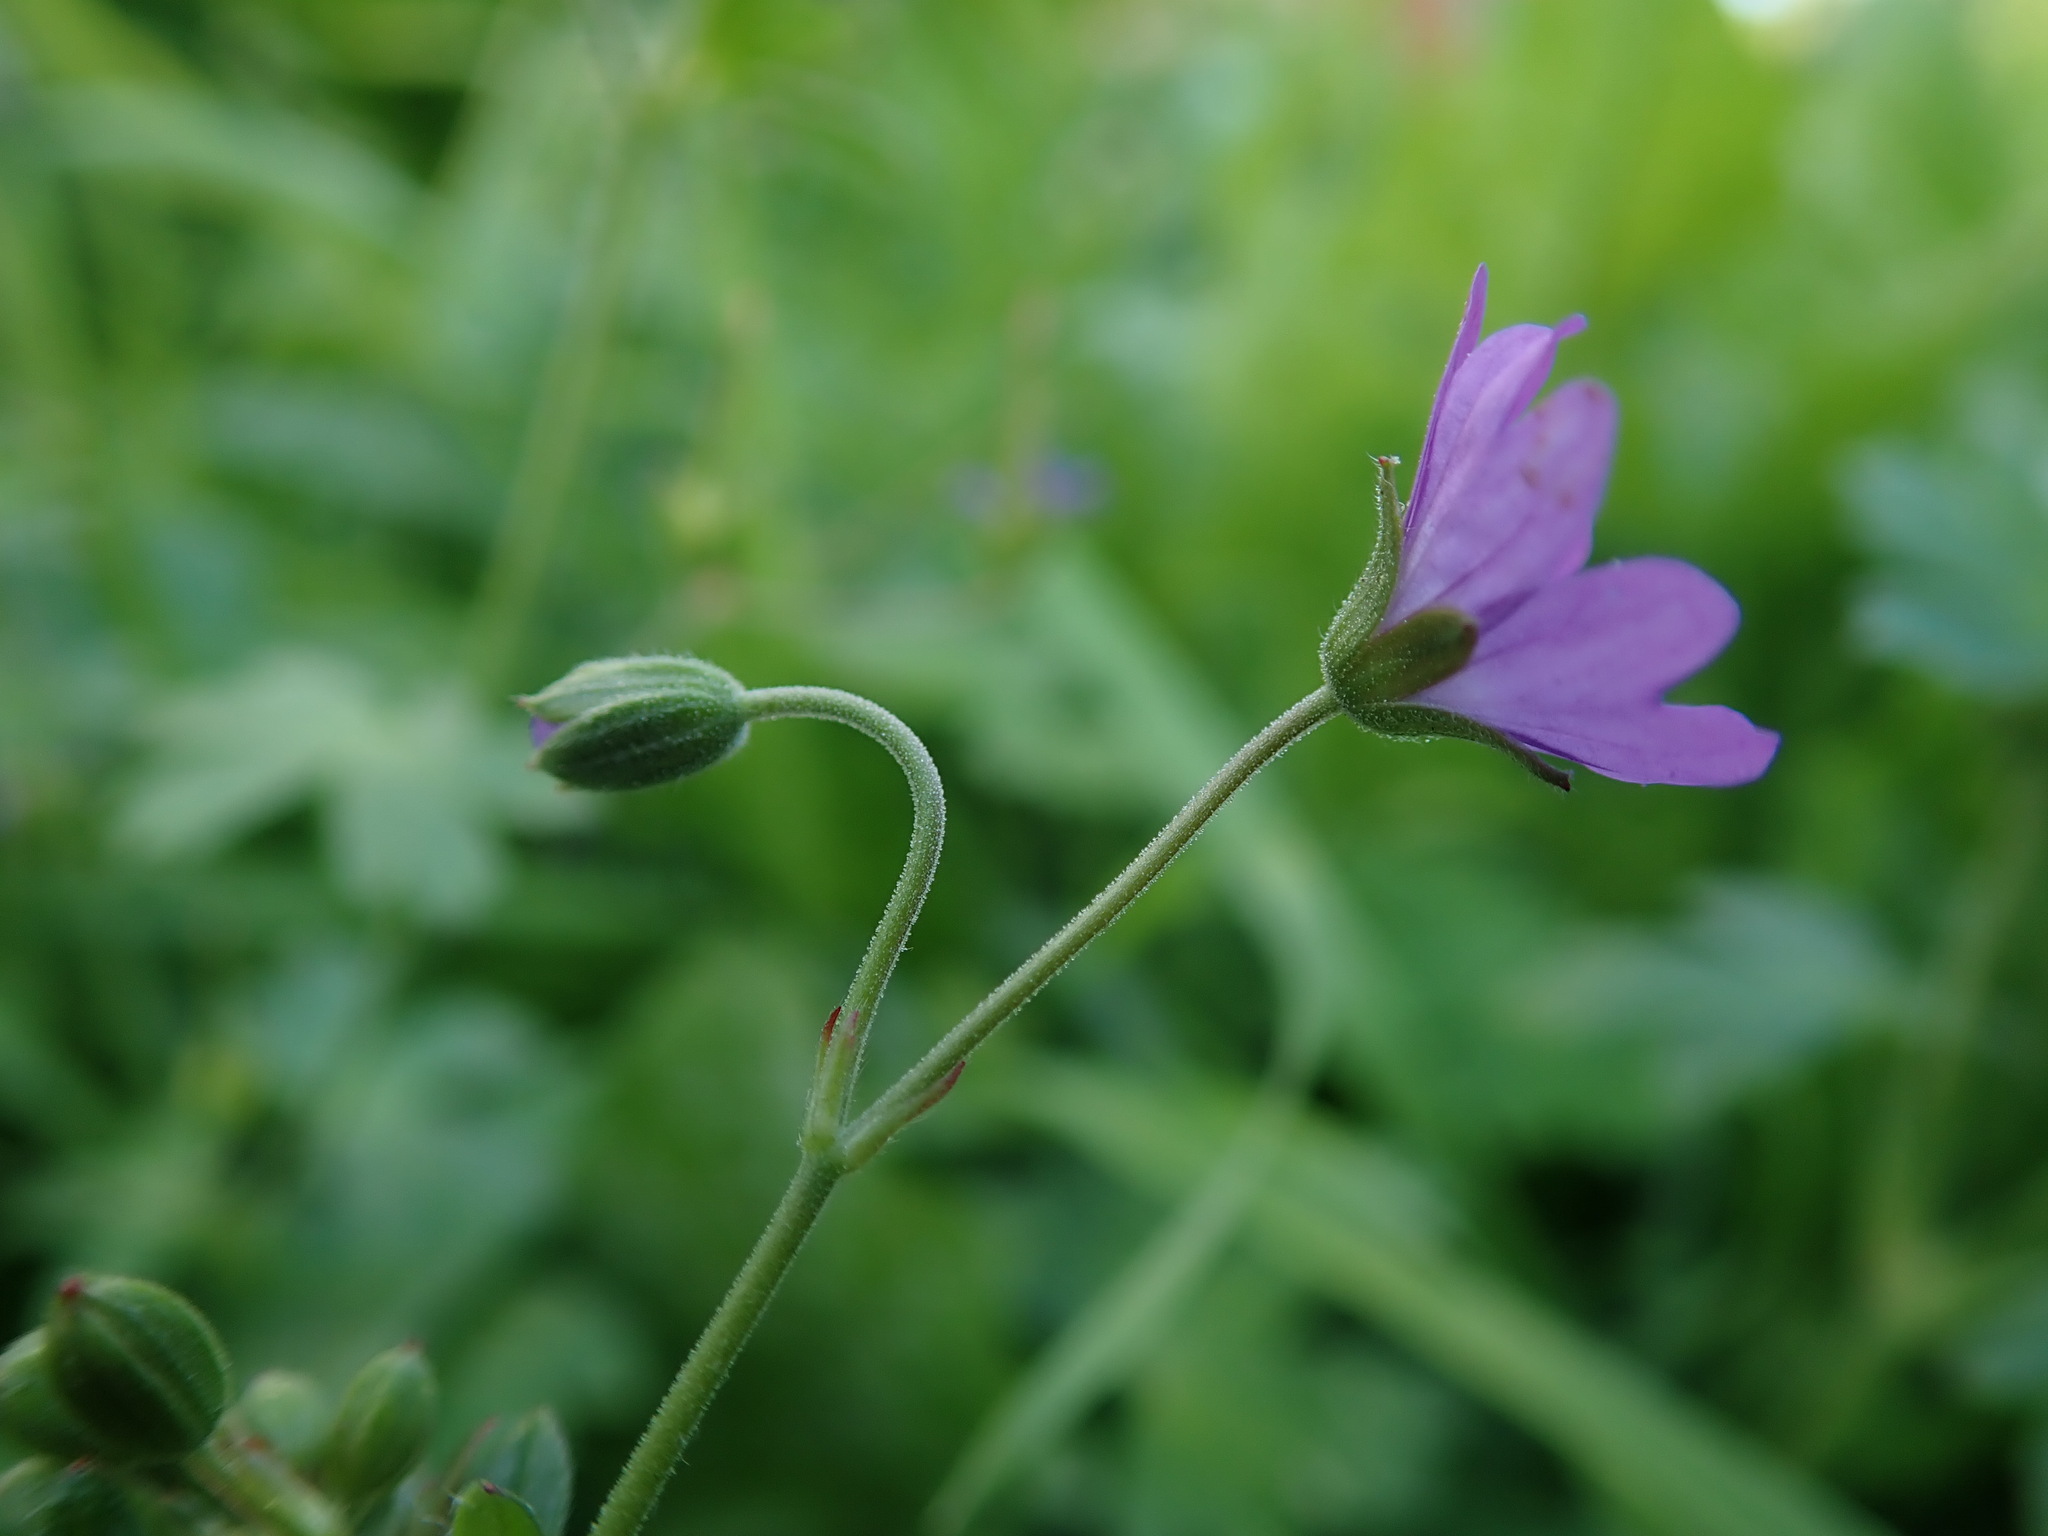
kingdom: Plantae
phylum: Tracheophyta
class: Magnoliopsida
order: Geraniales
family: Geraniaceae
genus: Geranium
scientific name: Geranium pyrenaicum
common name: Hedgerow crane's-bill
